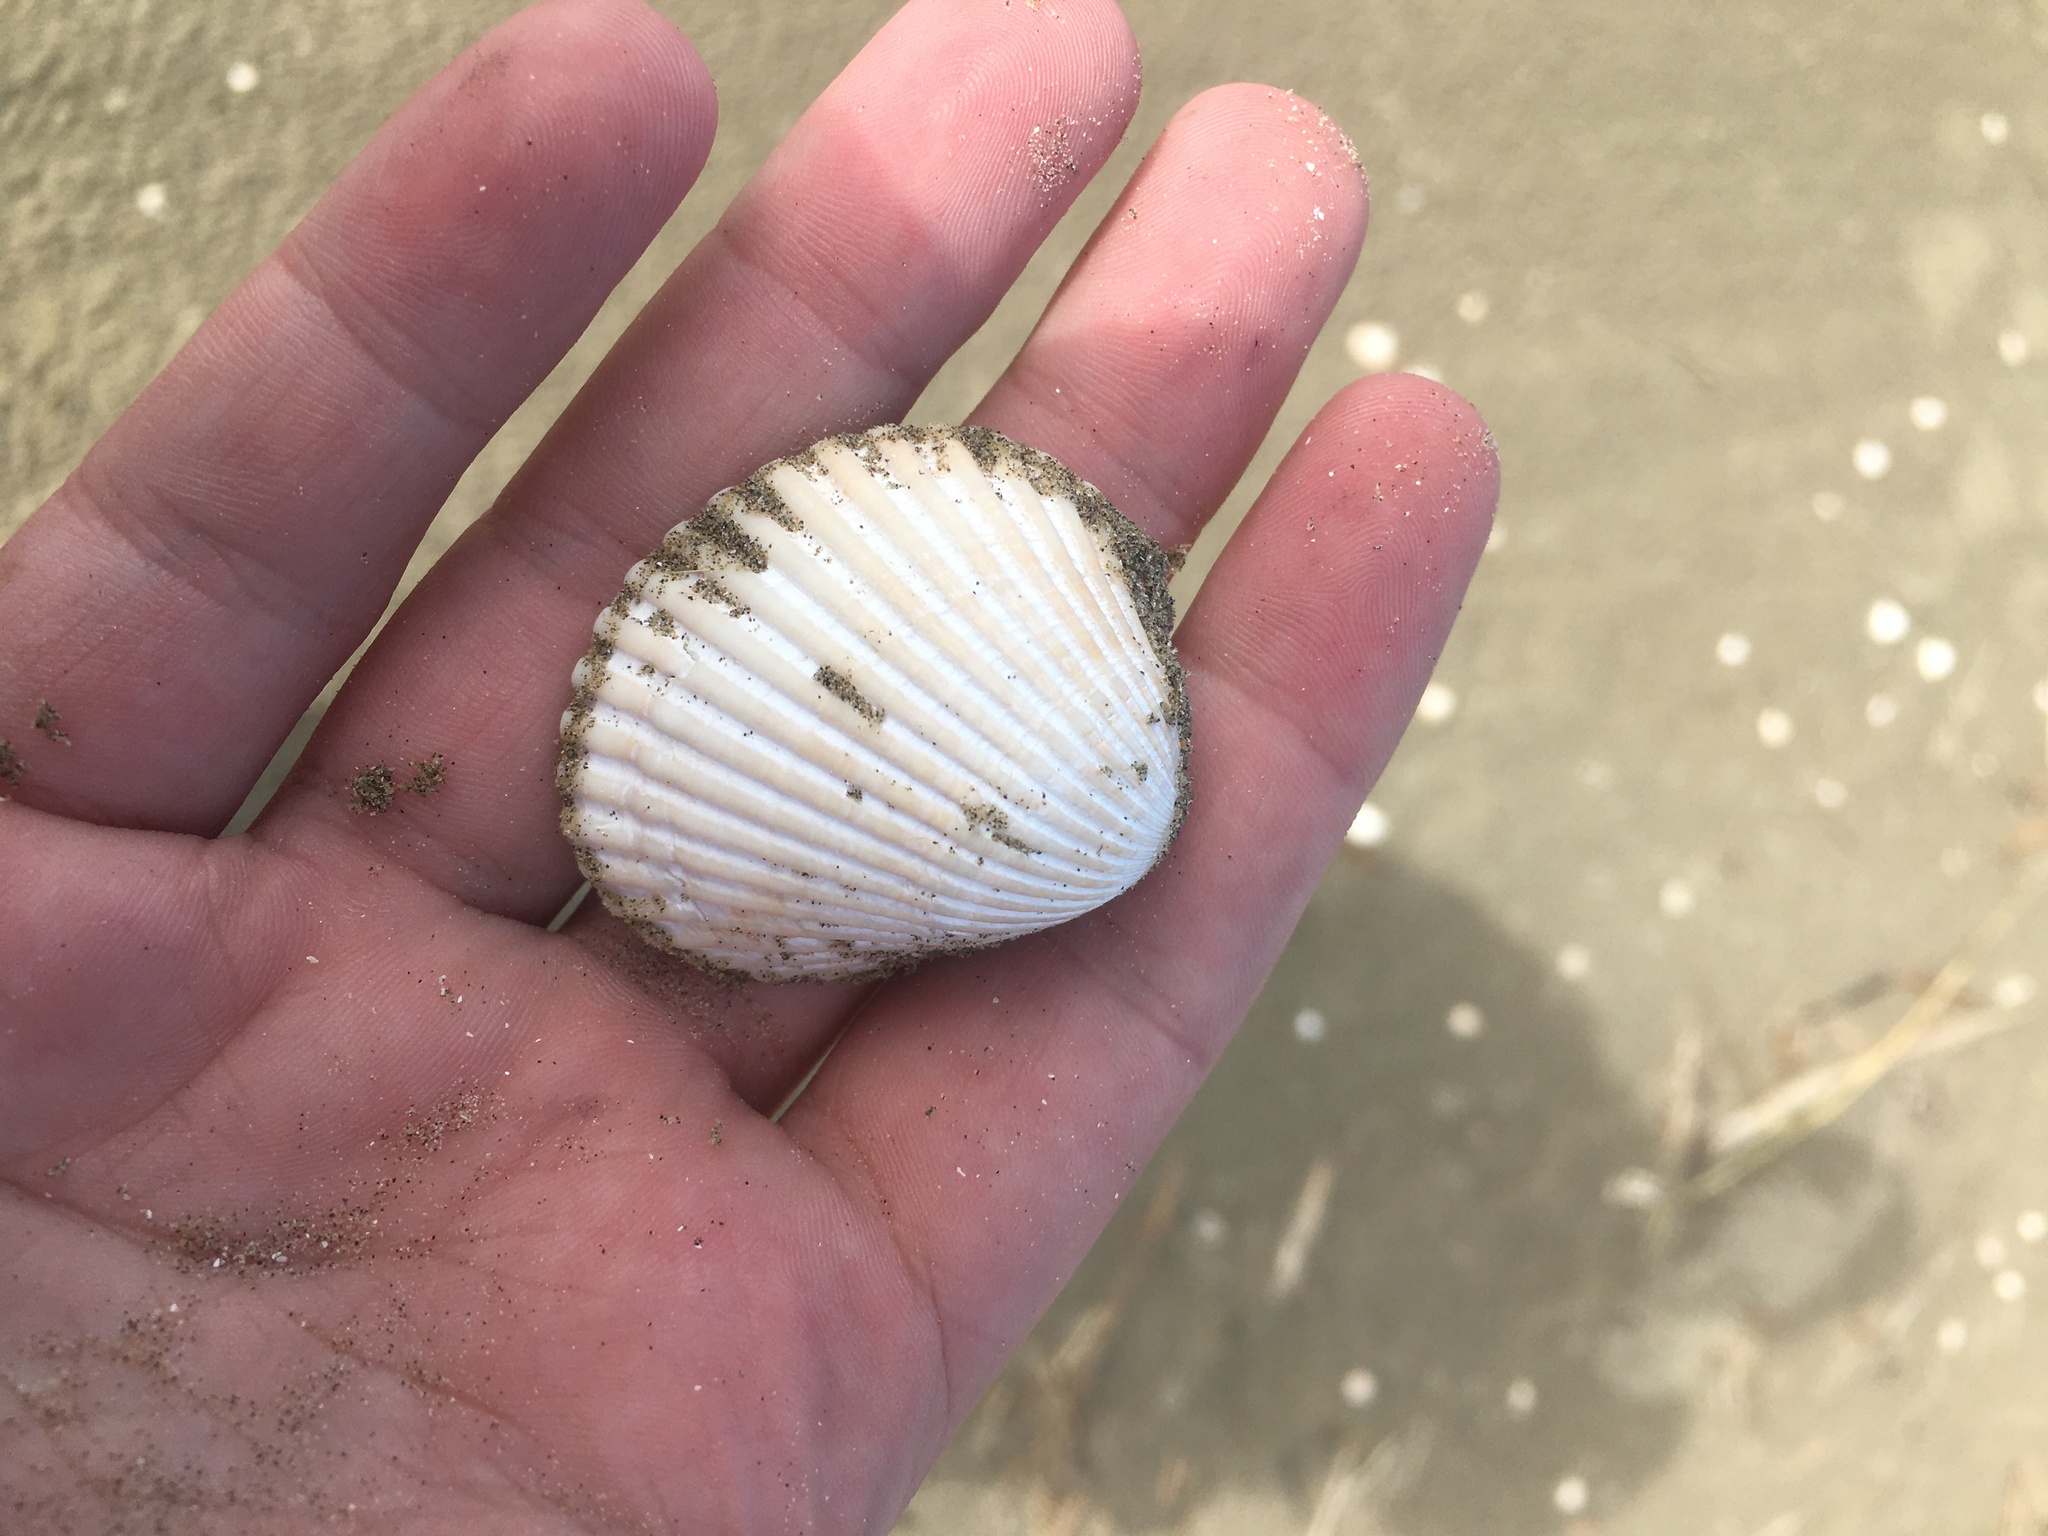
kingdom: Animalia
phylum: Mollusca
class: Bivalvia
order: Arcida
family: Arcidae
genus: Lunarca
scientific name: Lunarca ovalis
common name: Blood ark
